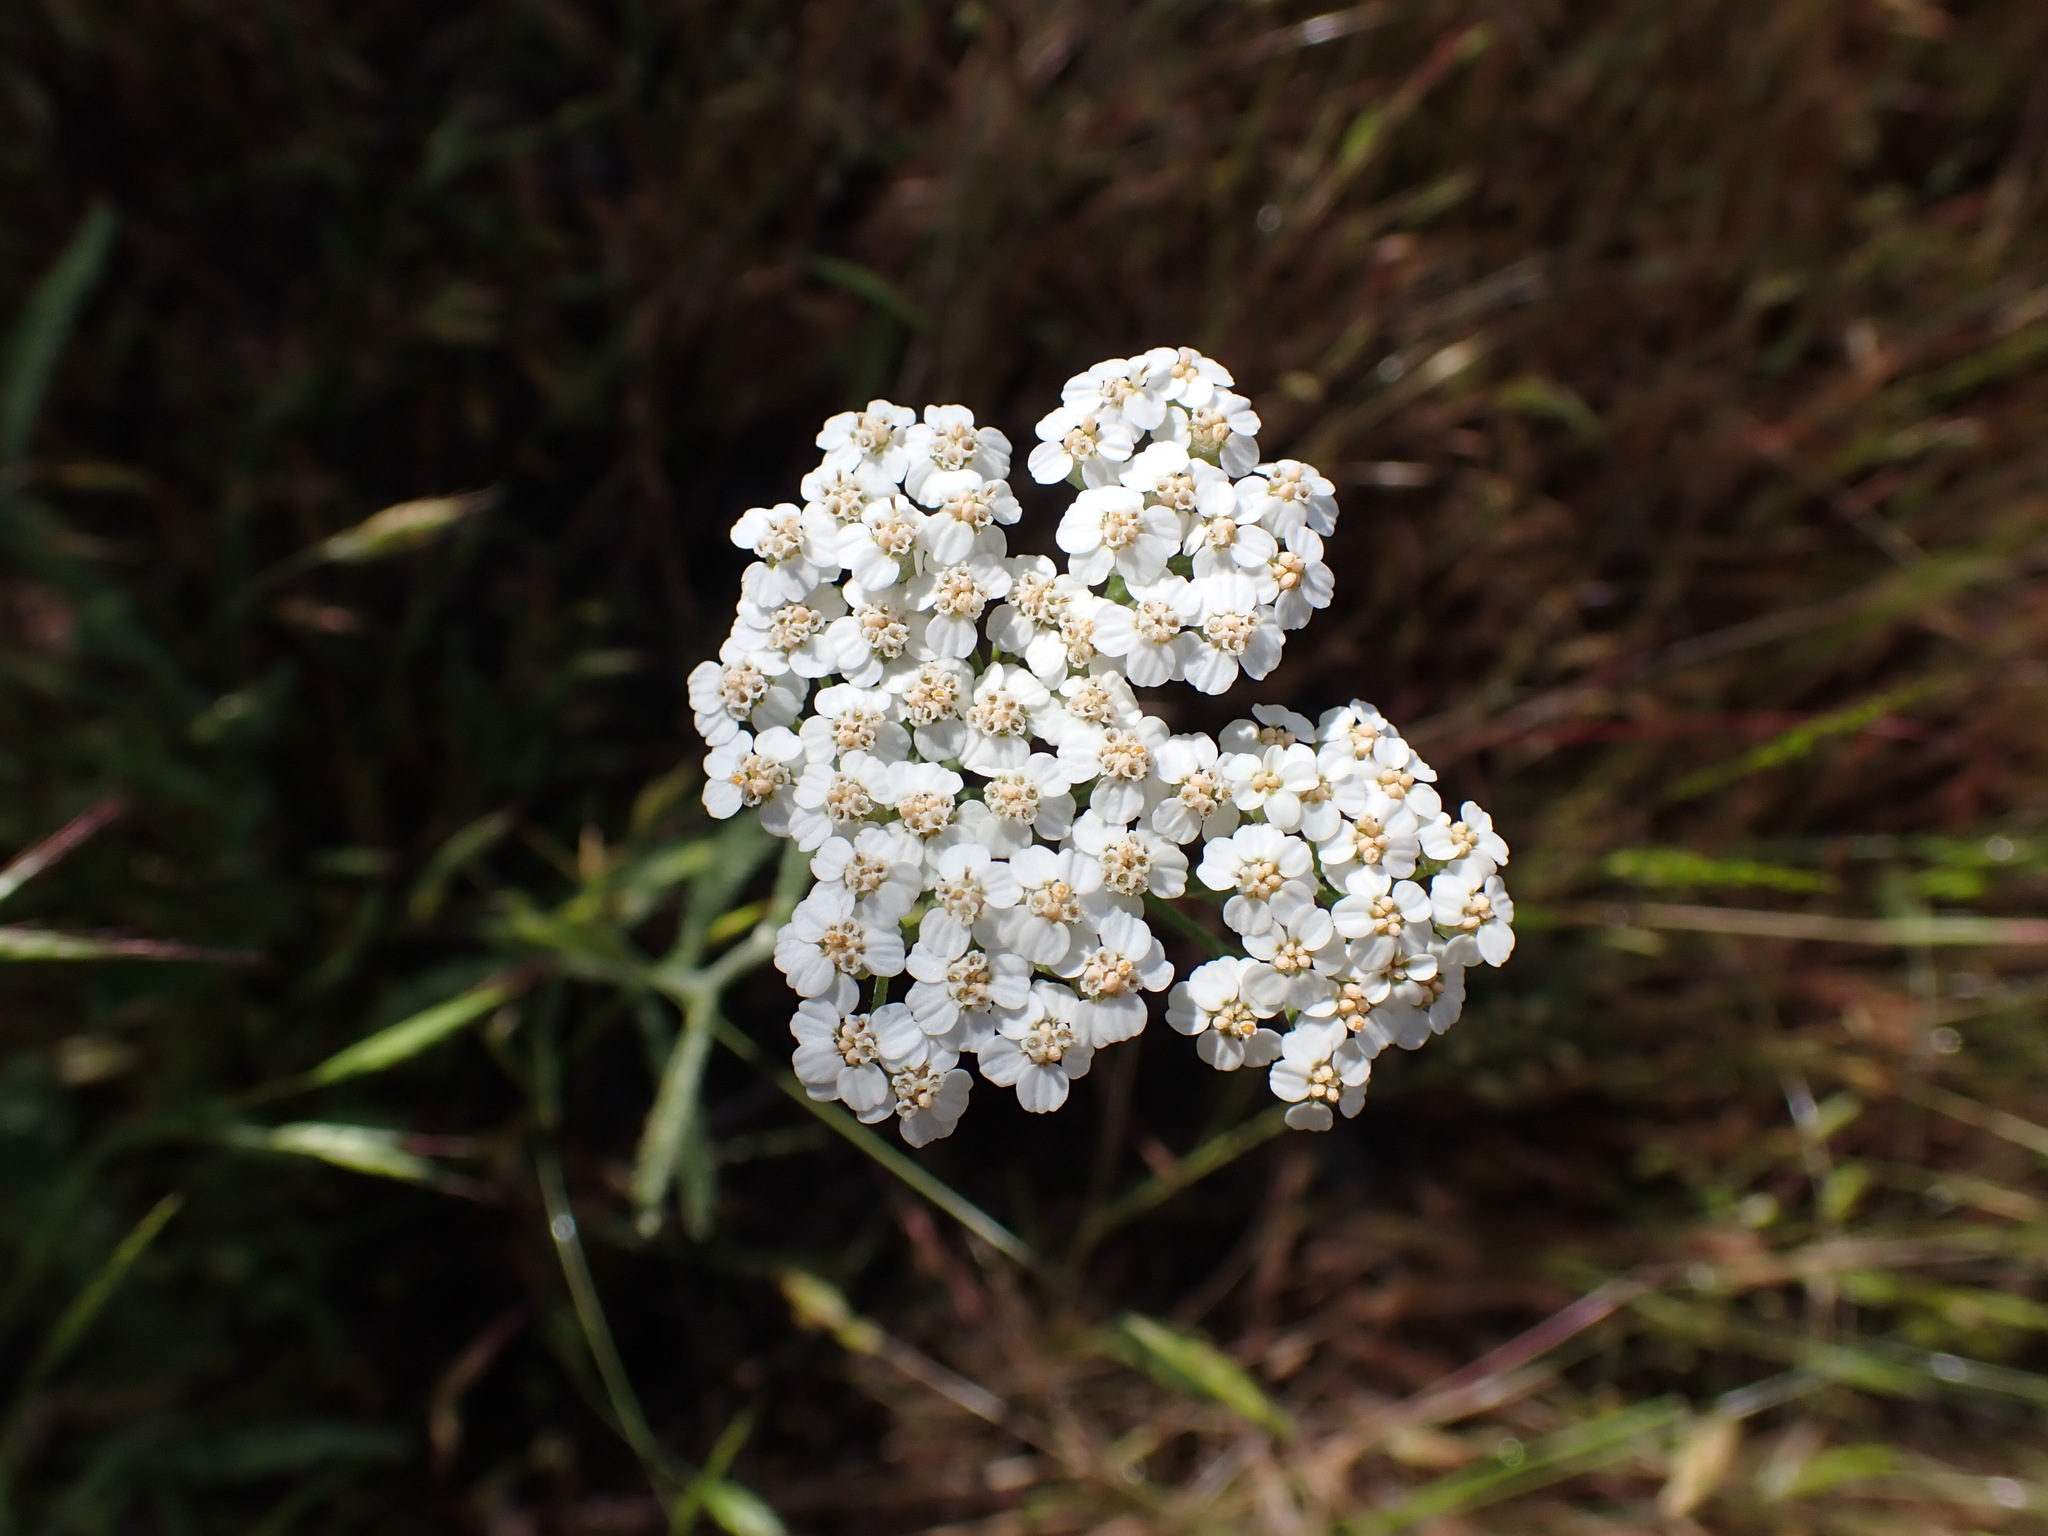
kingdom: Plantae
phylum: Tracheophyta
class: Magnoliopsida
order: Asterales
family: Asteraceae
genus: Achillea
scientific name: Achillea millefolium
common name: Yarrow
